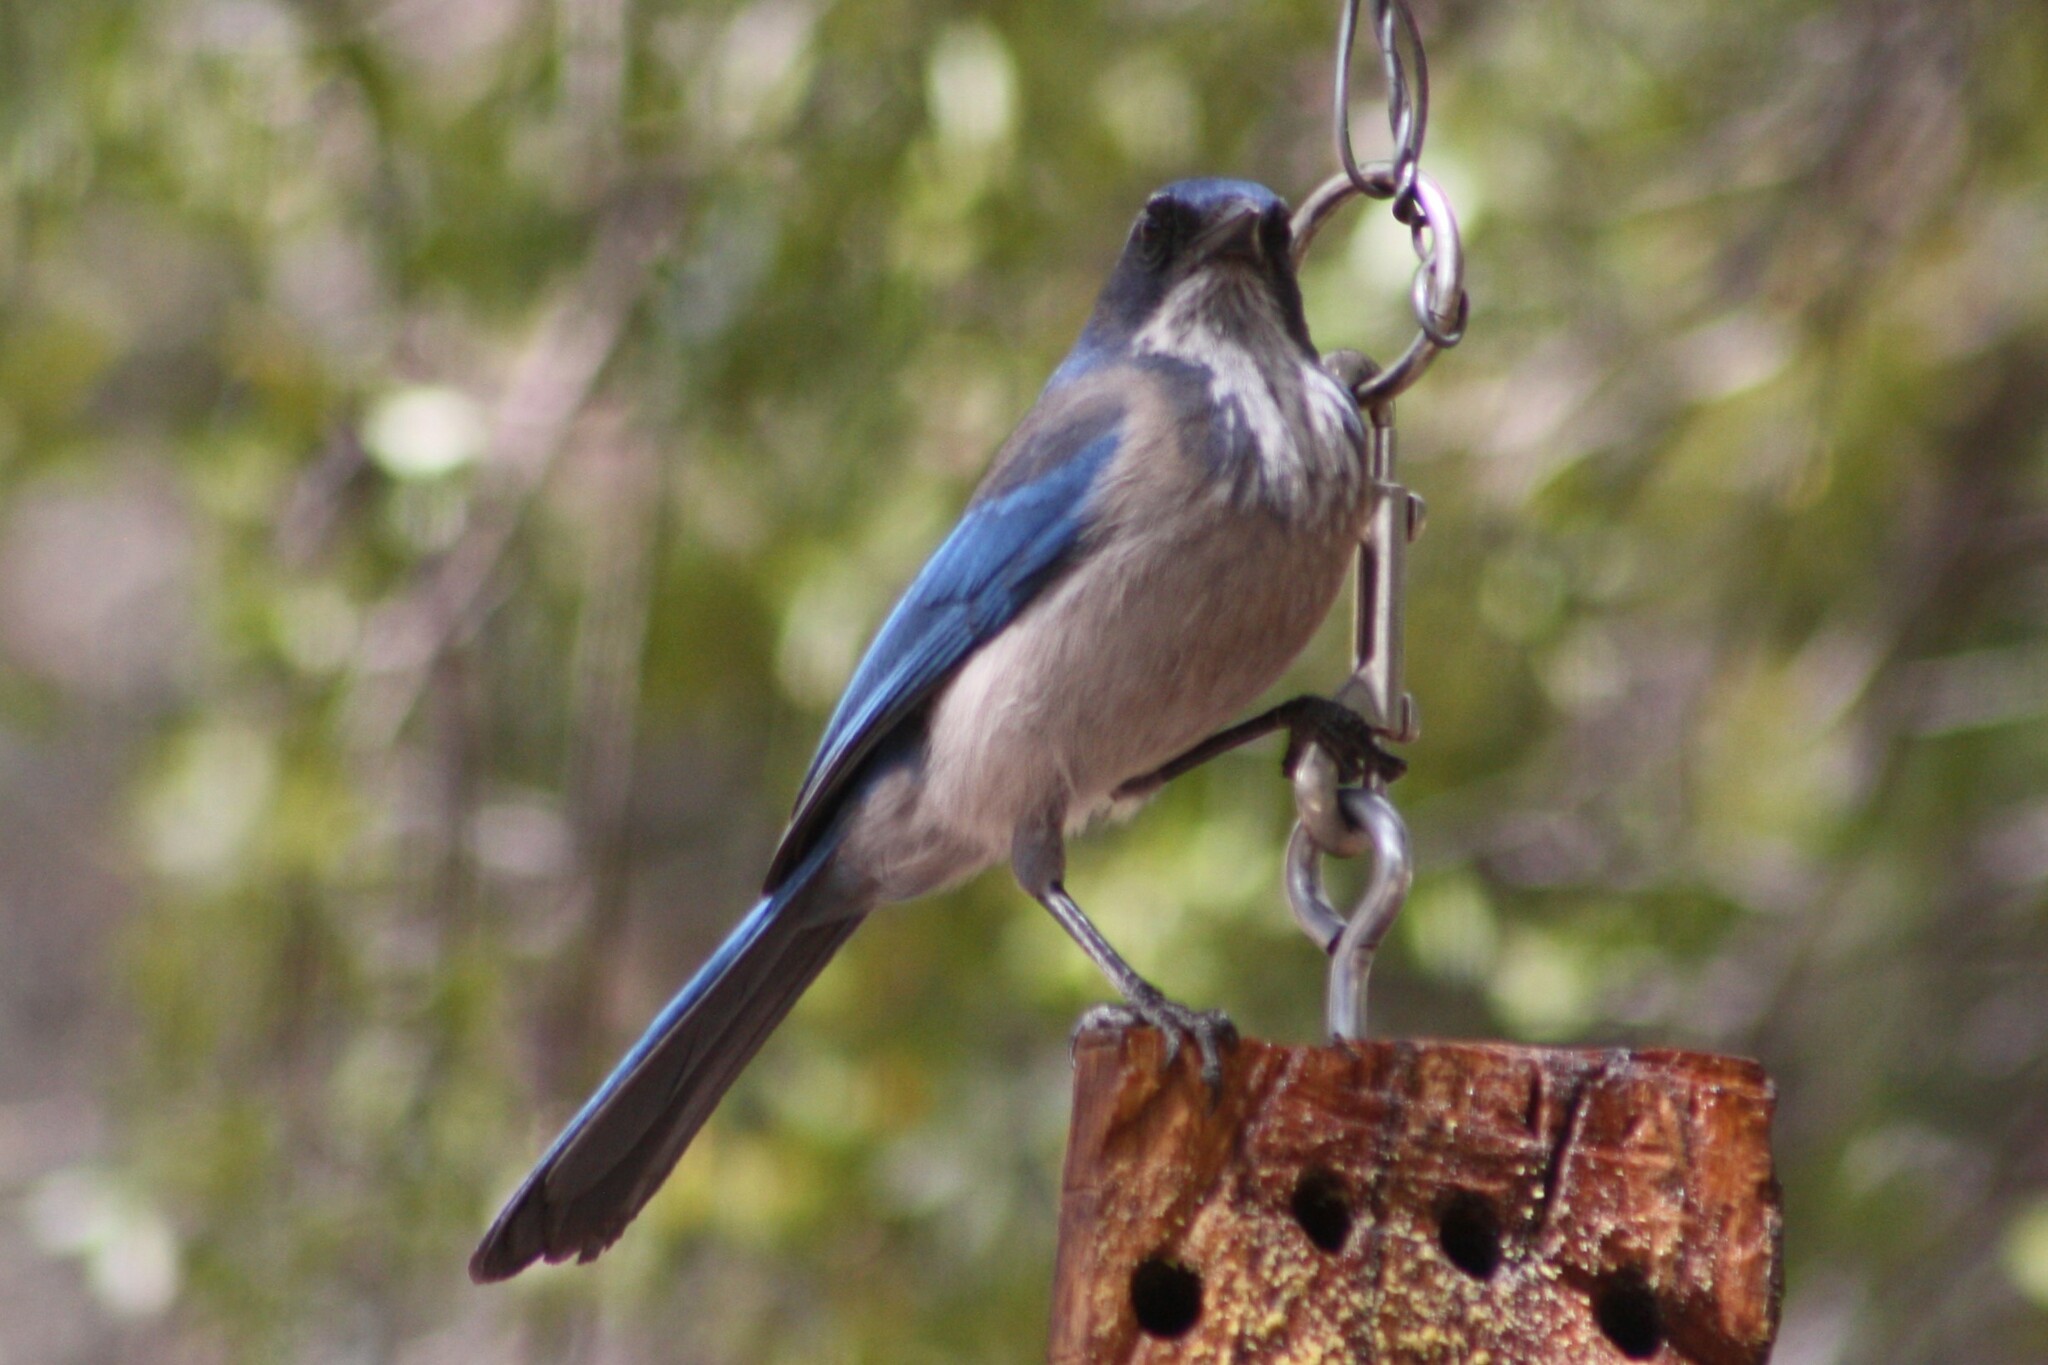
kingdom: Animalia
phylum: Chordata
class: Aves
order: Passeriformes
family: Corvidae
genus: Aphelocoma
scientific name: Aphelocoma woodhouseii
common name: Woodhouse's scrub-jay
